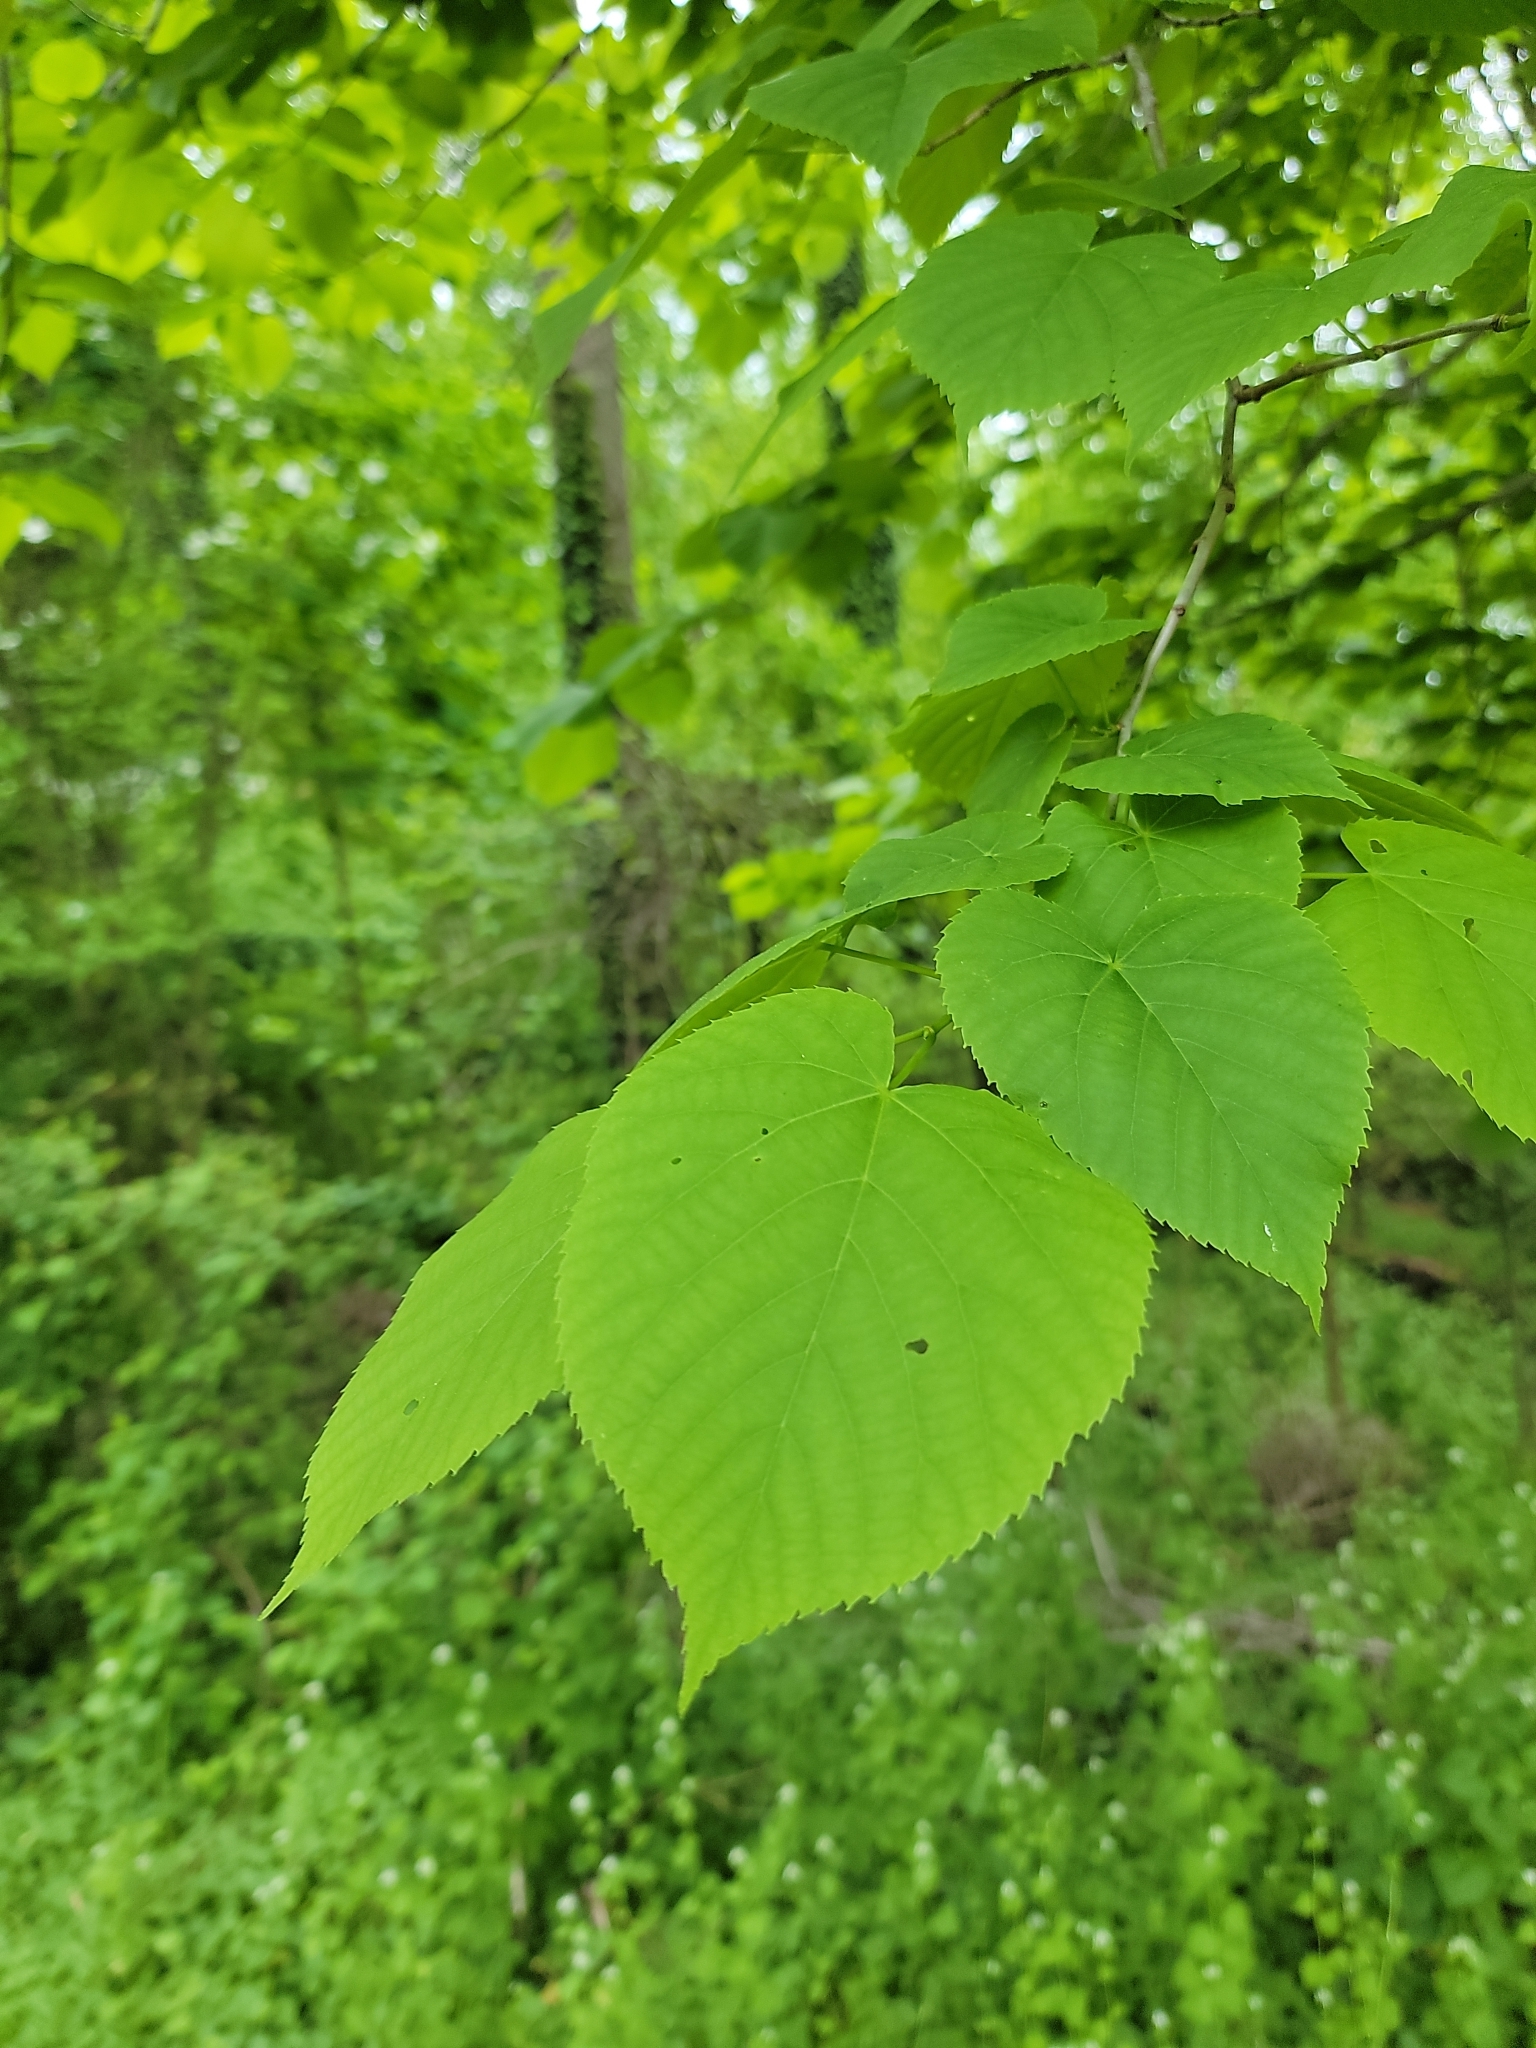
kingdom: Plantae
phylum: Tracheophyta
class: Magnoliopsida
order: Malvales
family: Malvaceae
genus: Tilia
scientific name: Tilia americana
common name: Basswood
